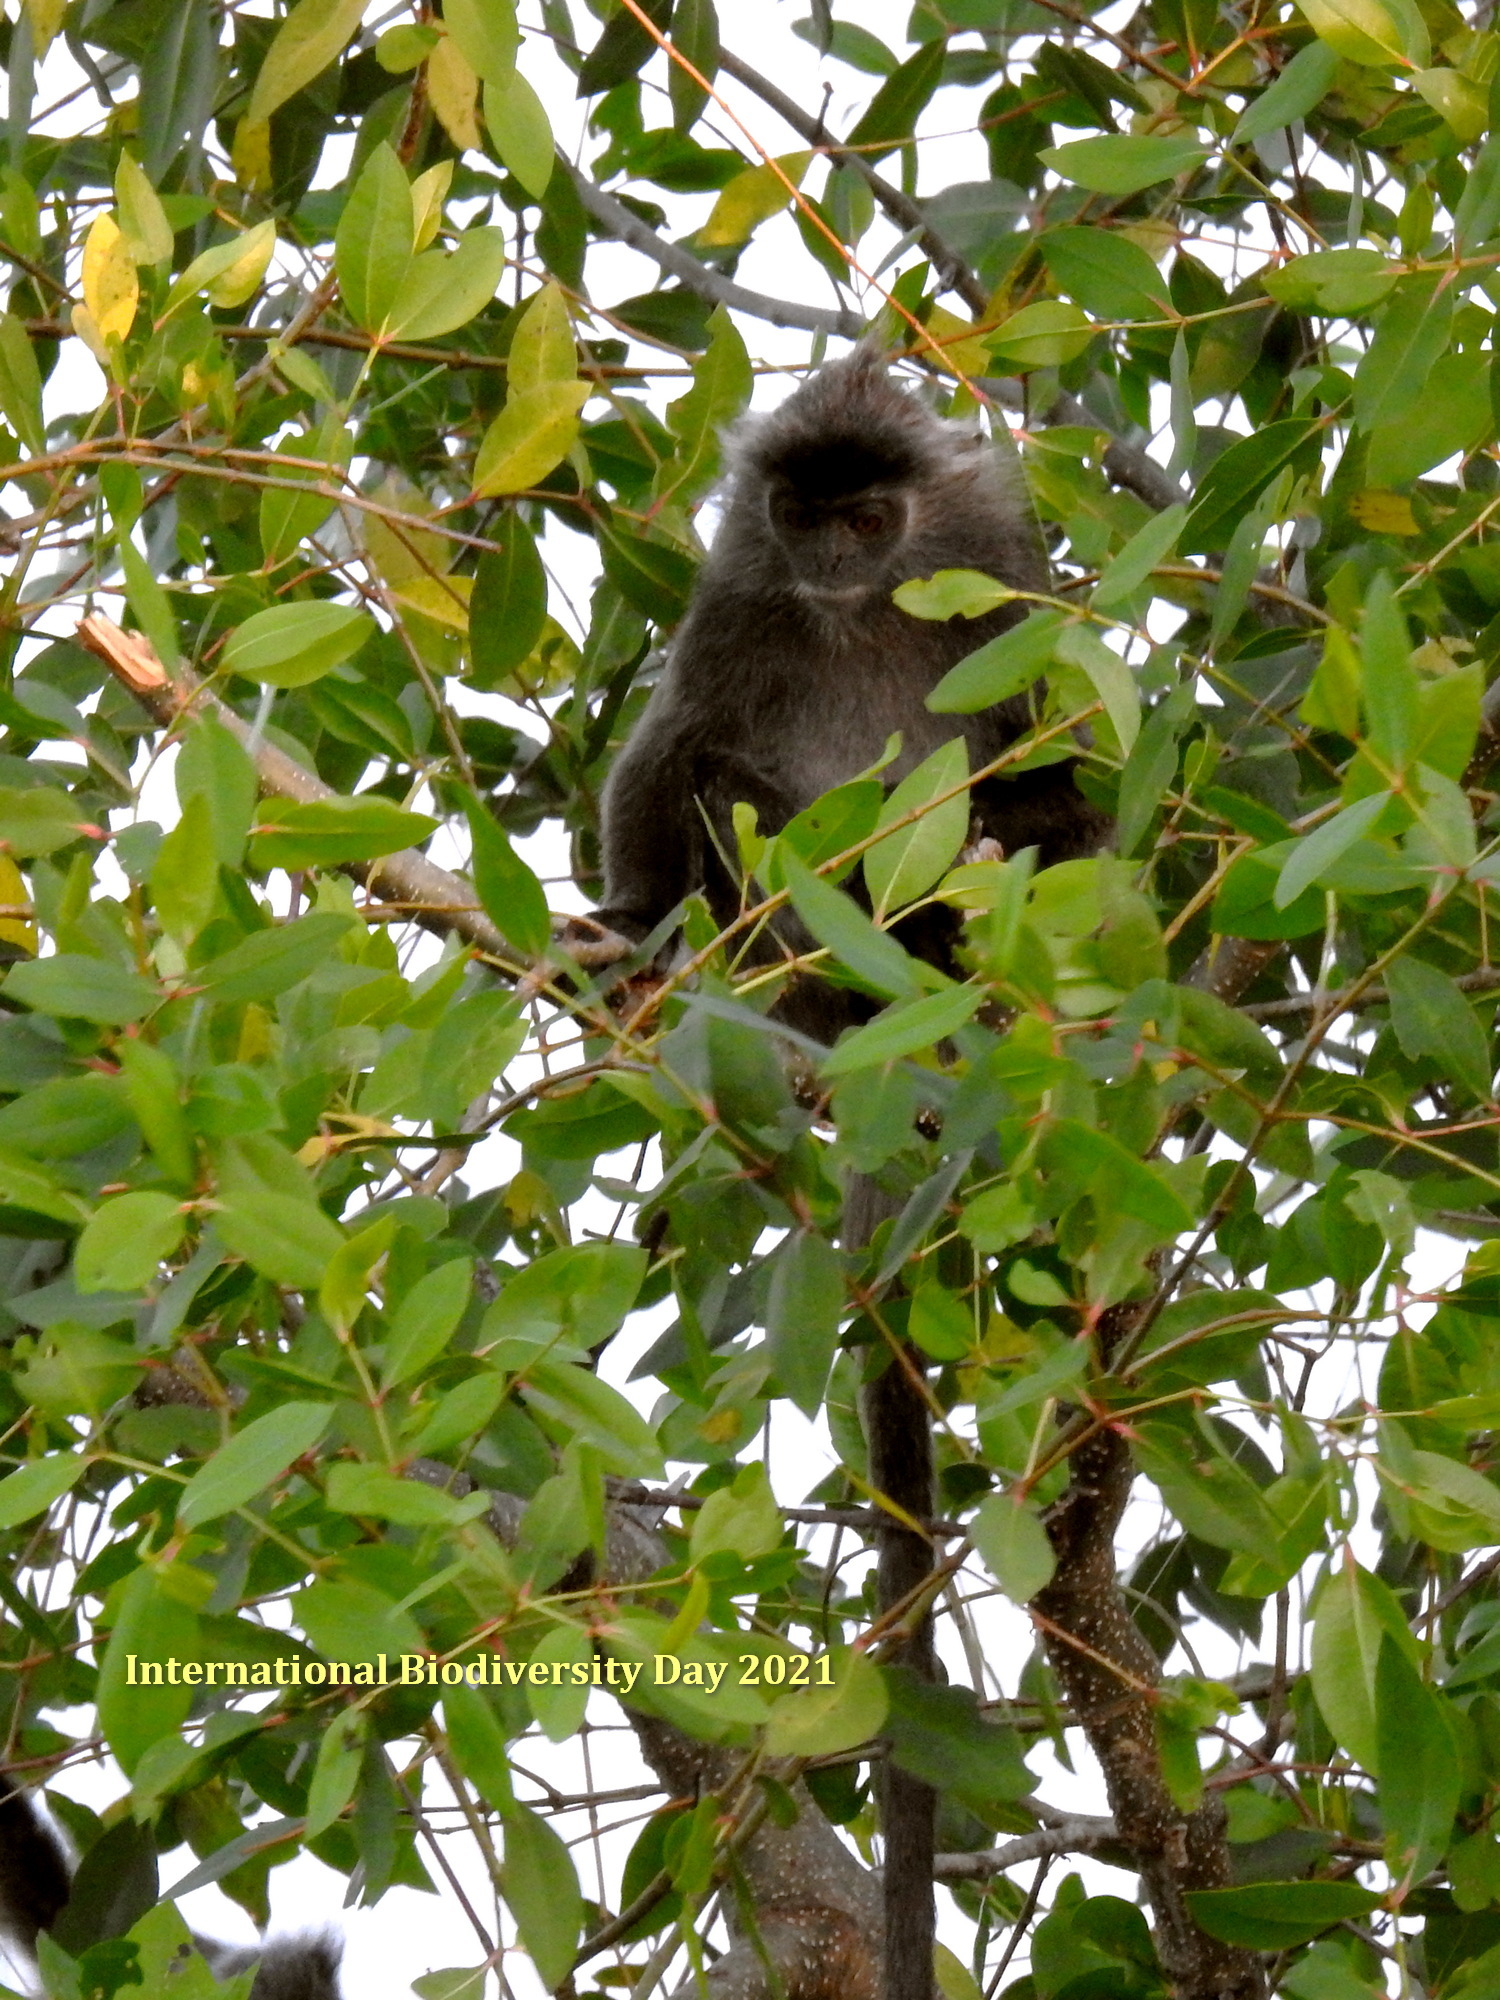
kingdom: Animalia
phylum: Chordata
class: Mammalia
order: Primates
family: Cercopithecidae
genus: Trachypithecus
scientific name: Trachypithecus cristatus
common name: Silvery lutung
